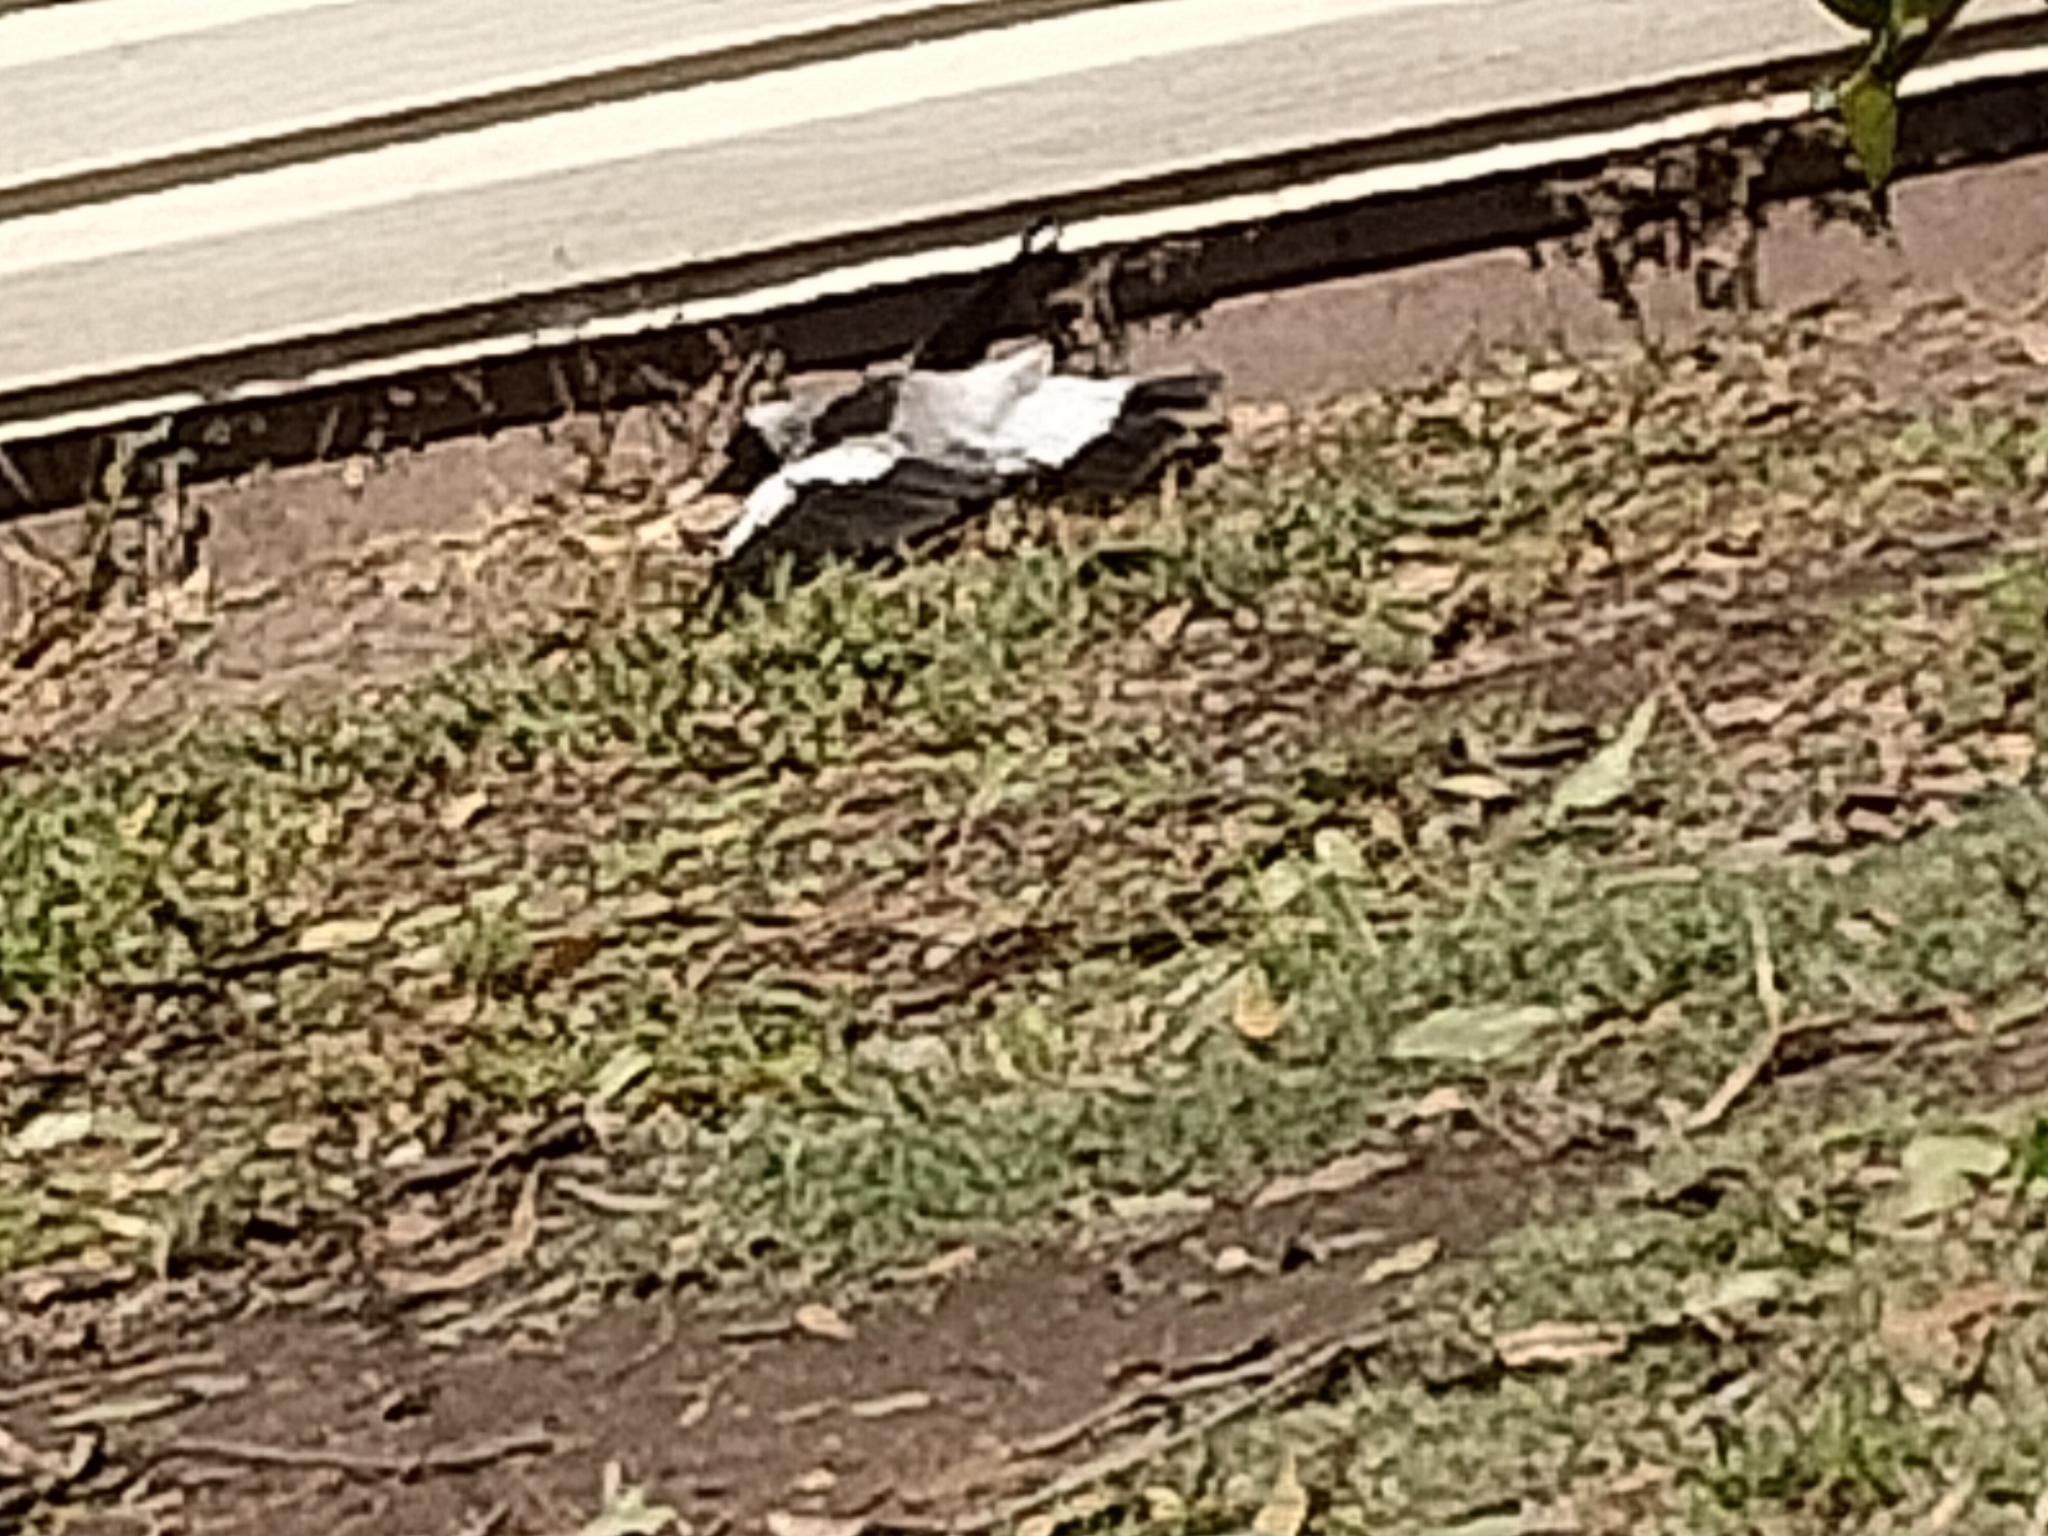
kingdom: Animalia
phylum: Chordata
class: Aves
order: Passeriformes
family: Cracticidae
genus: Gymnorhina
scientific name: Gymnorhina tibicen
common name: Australian magpie
